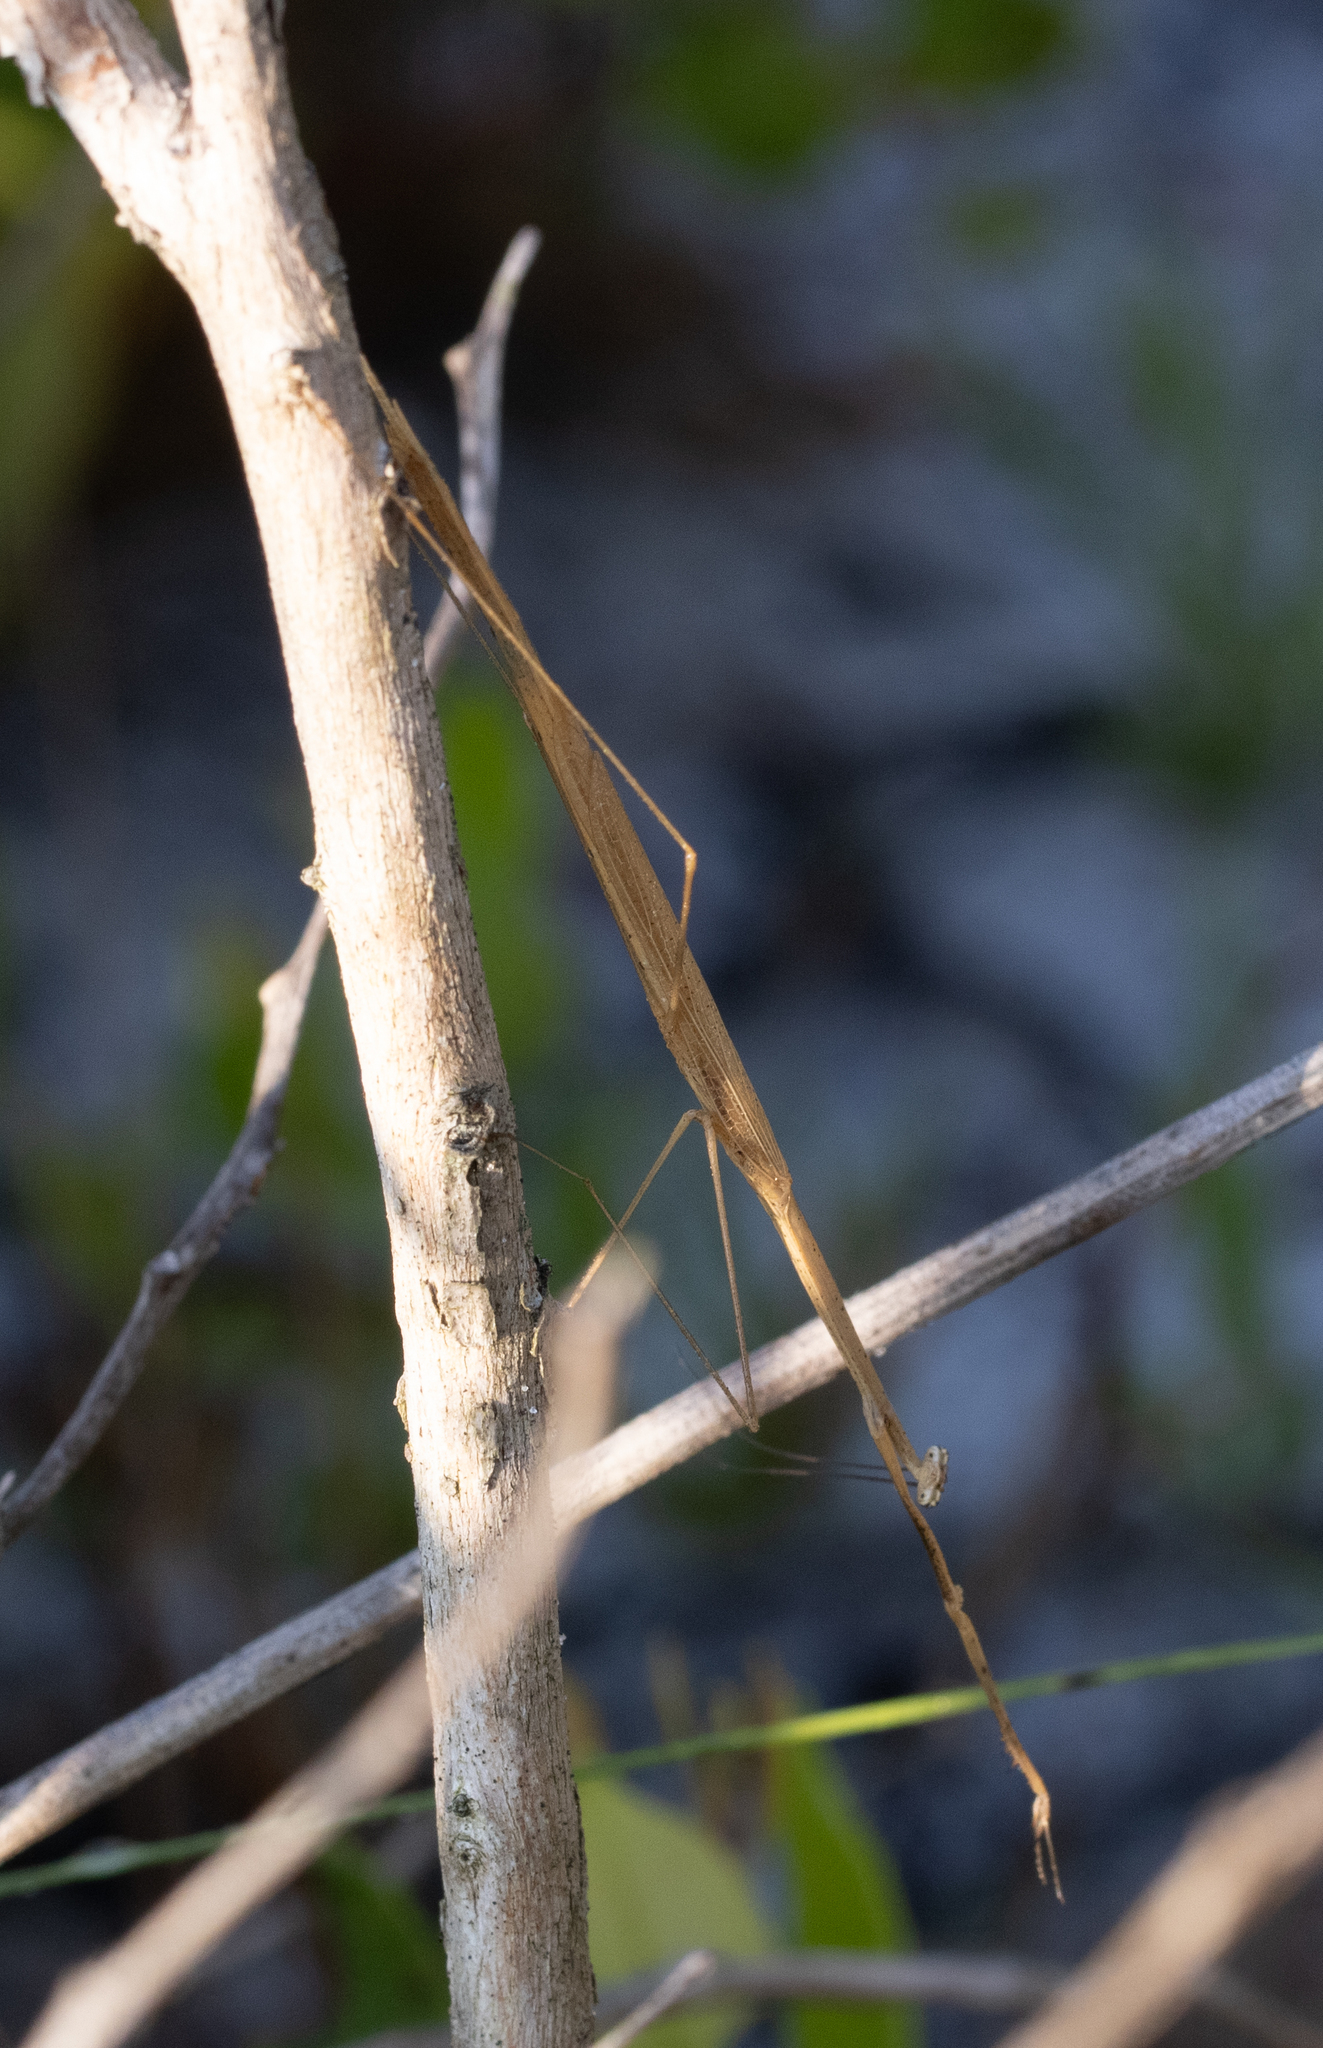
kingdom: Animalia
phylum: Arthropoda
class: Insecta
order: Mantodea
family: Thespidae
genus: Thesprotia
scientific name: Thesprotia graminis
